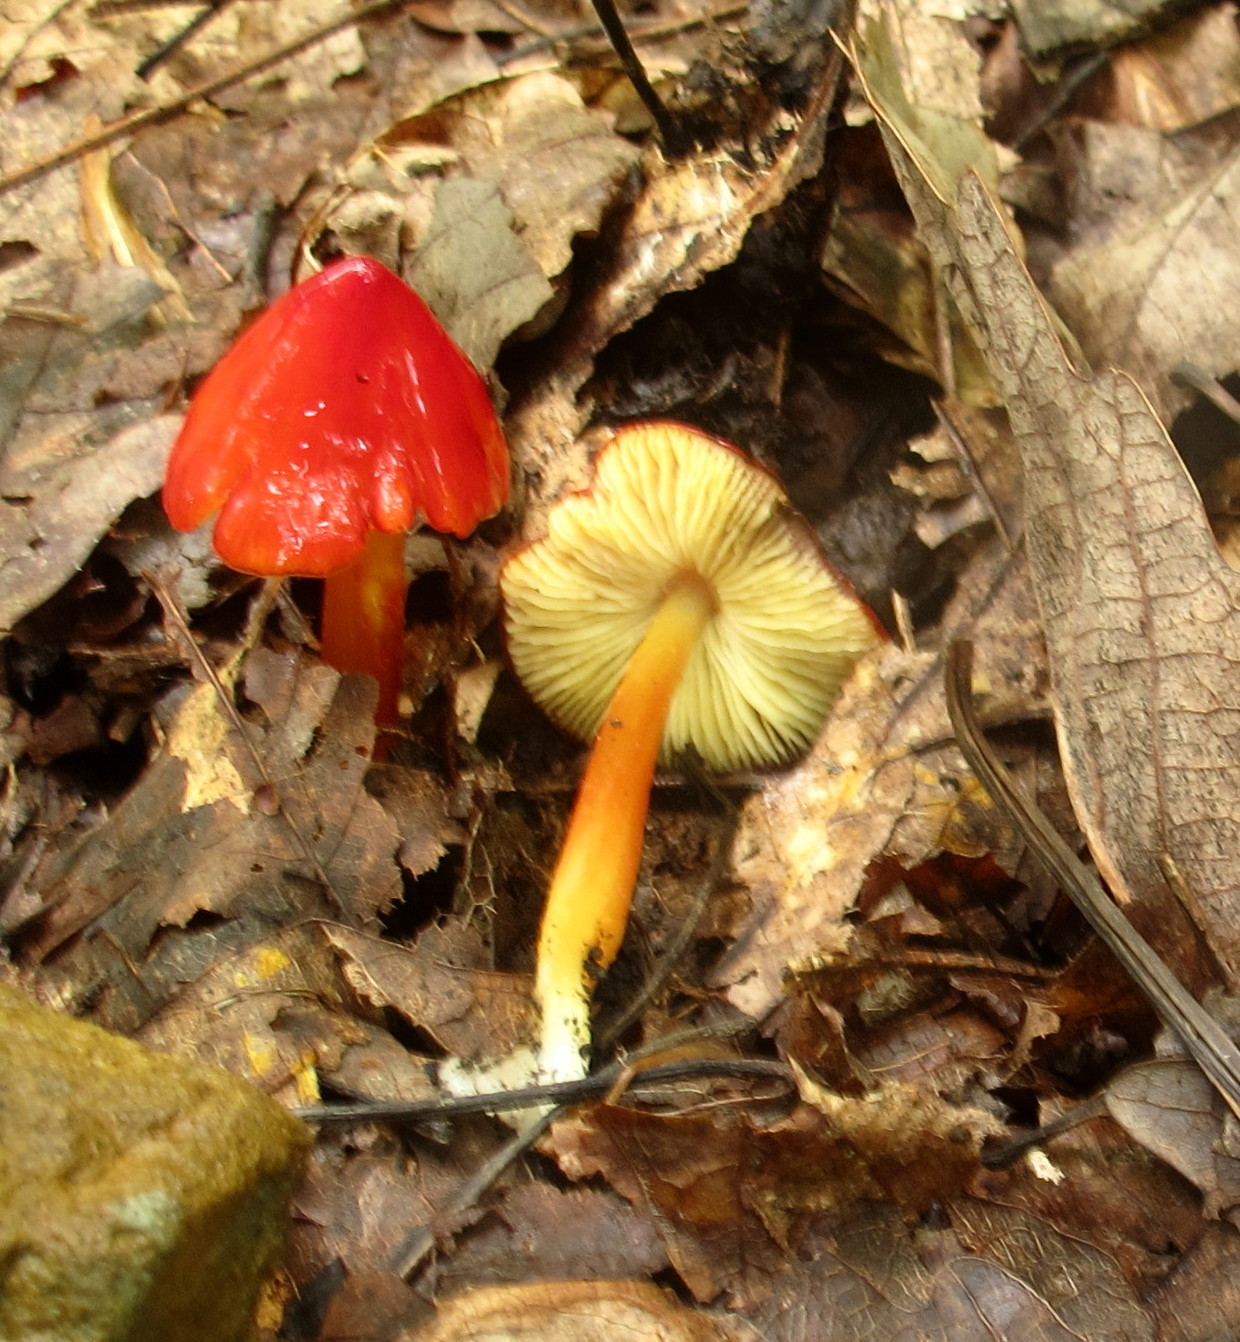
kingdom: Fungi
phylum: Basidiomycota
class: Agaricomycetes
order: Agaricales
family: Hygrophoraceae
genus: Hygrocybe
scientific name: Hygrocybe cuspidata
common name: Candy apple waxy cap
